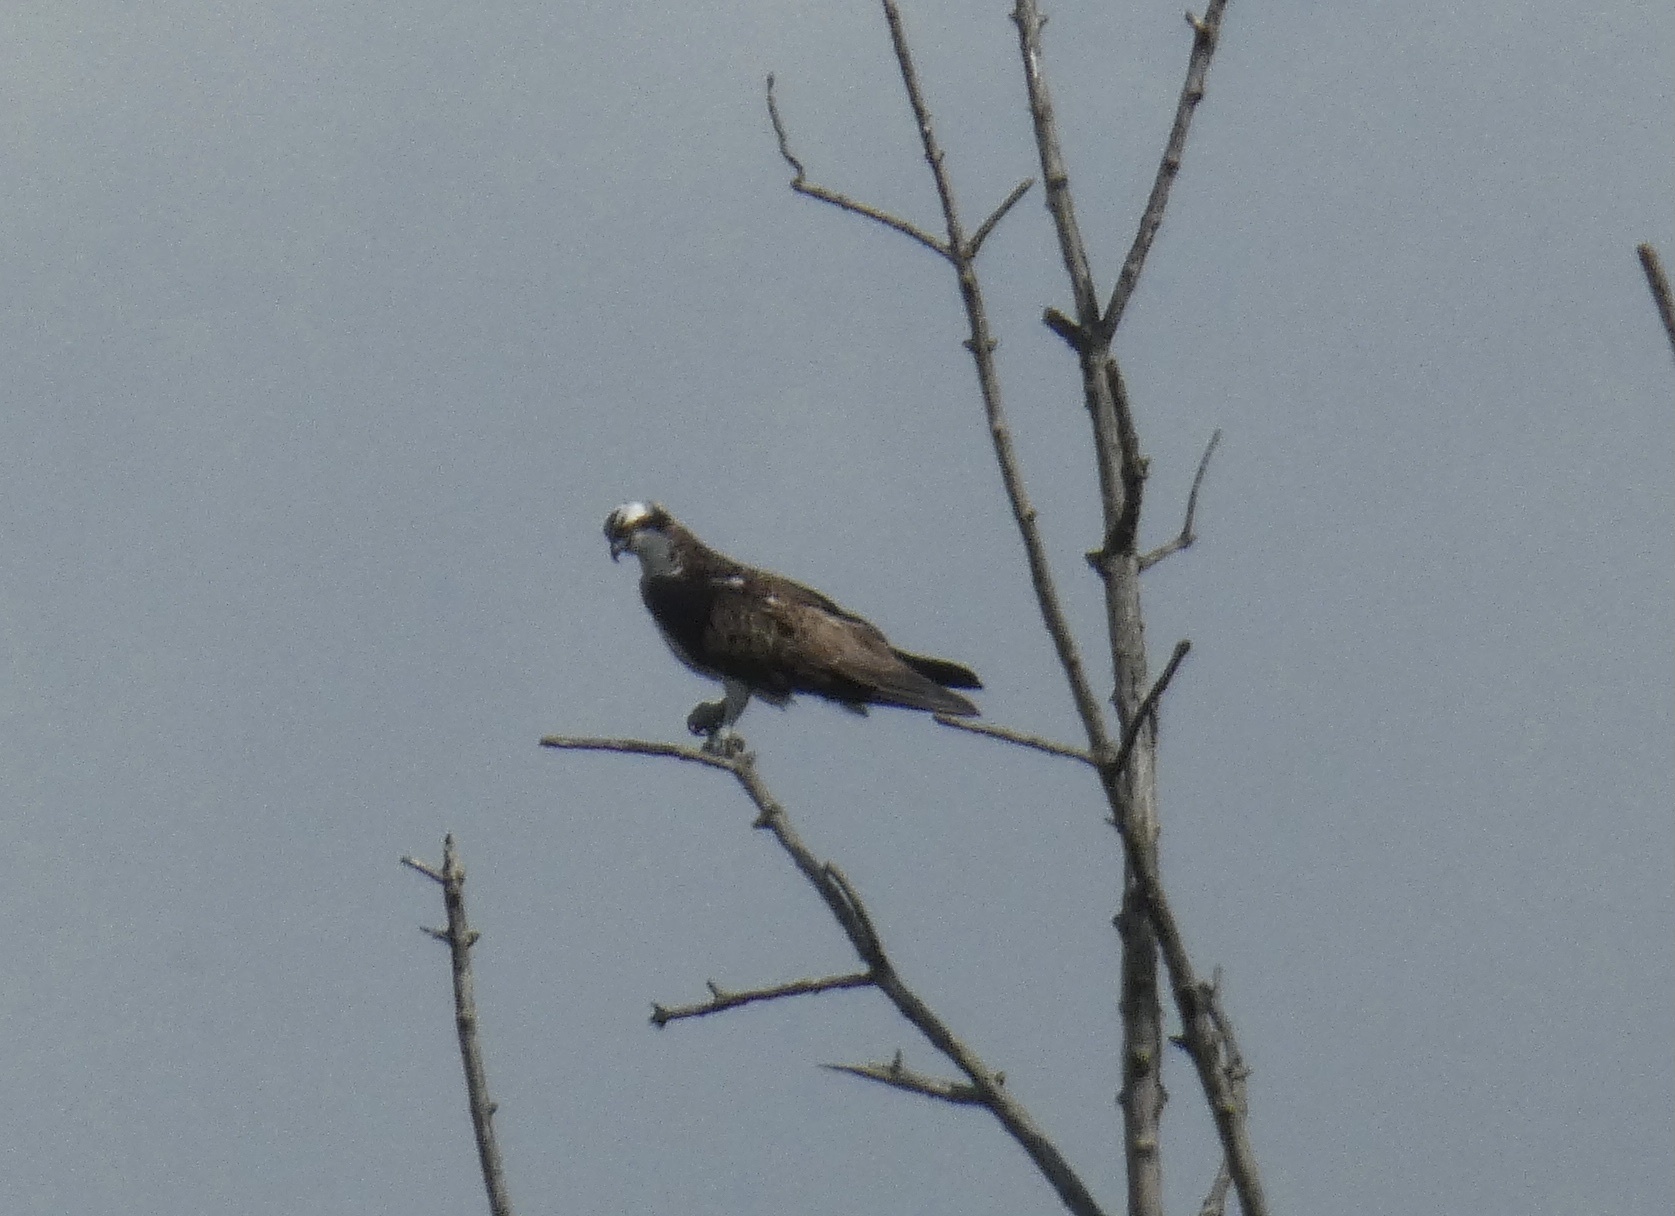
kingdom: Animalia
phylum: Chordata
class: Aves
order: Accipitriformes
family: Pandionidae
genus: Pandion
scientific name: Pandion haliaetus
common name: Osprey
